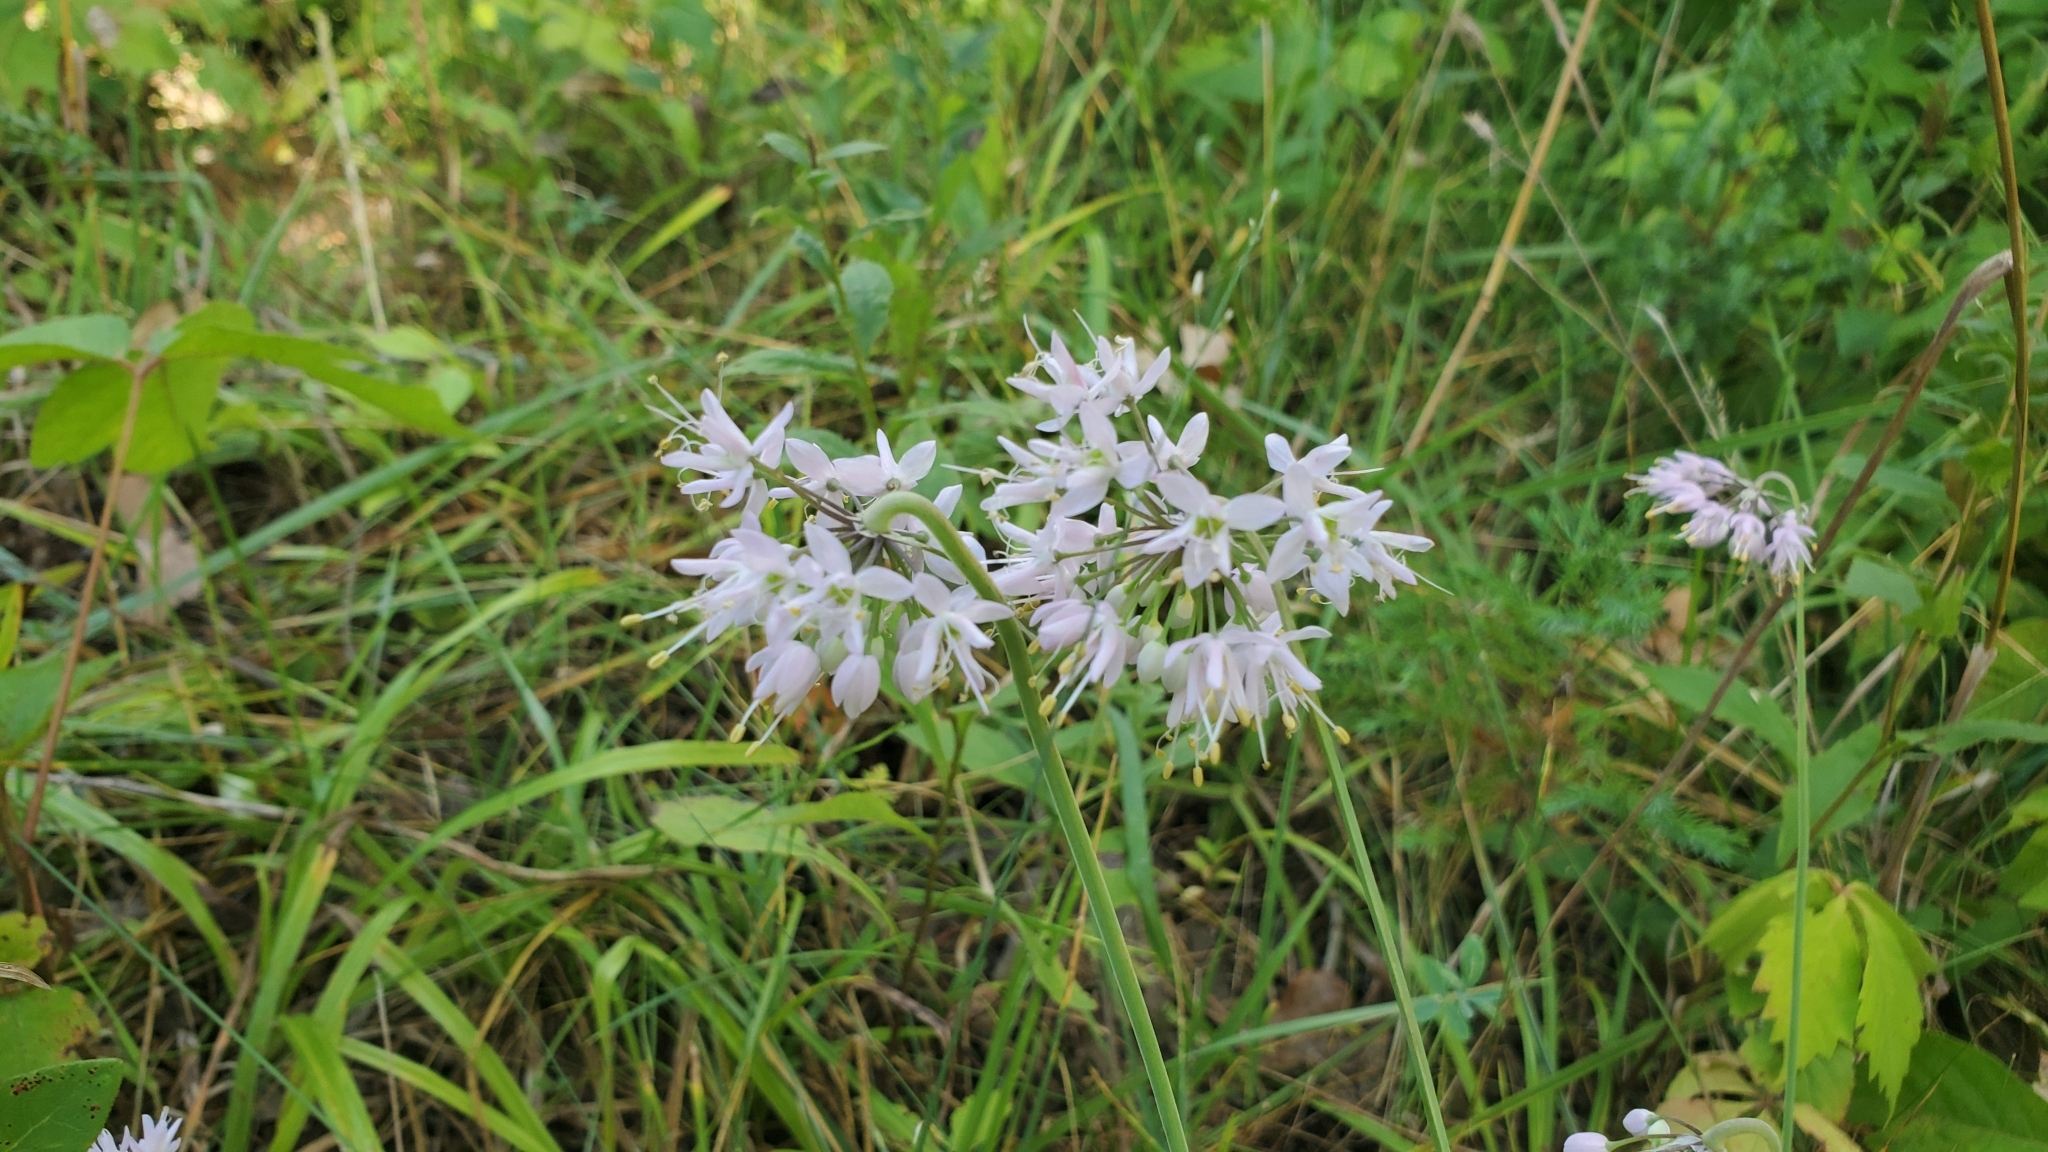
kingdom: Plantae
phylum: Tracheophyta
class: Liliopsida
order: Asparagales
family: Amaryllidaceae
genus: Allium
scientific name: Allium cernuum
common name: Nodding onion
